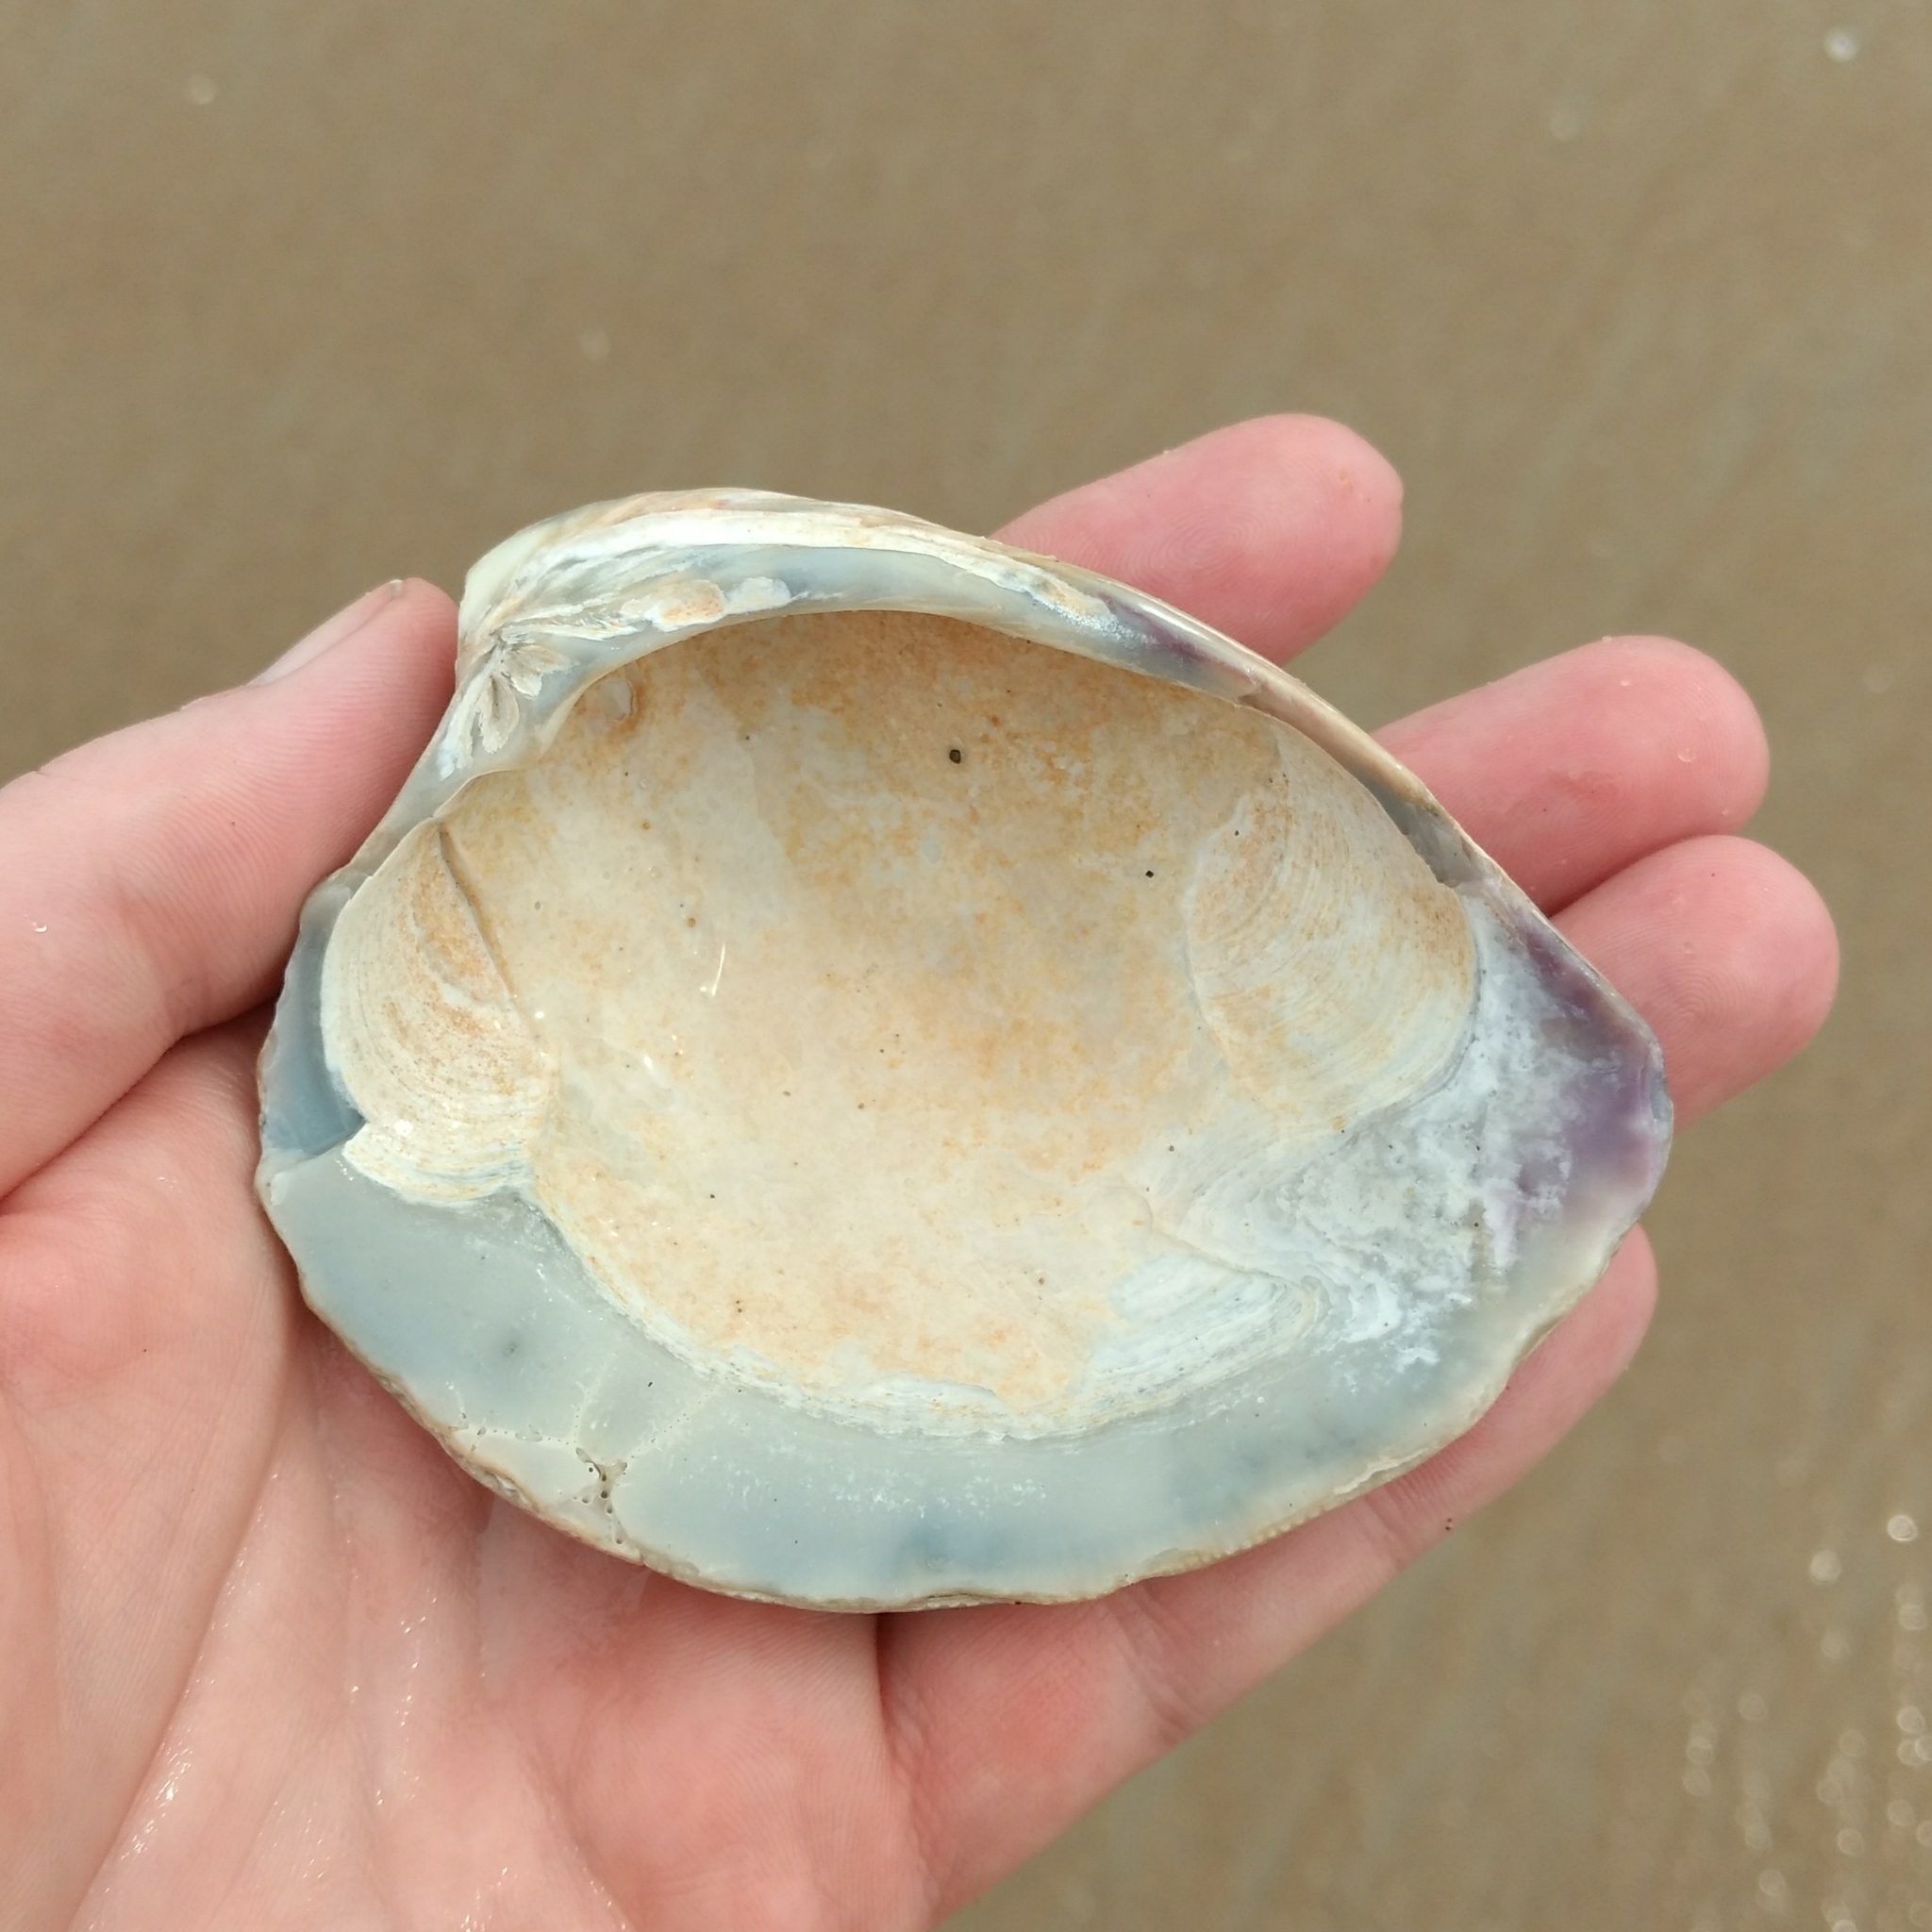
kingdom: Animalia
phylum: Mollusca
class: Bivalvia
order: Venerida
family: Veneridae
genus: Mercenaria
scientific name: Mercenaria mercenaria
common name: American hard-shelled clam
